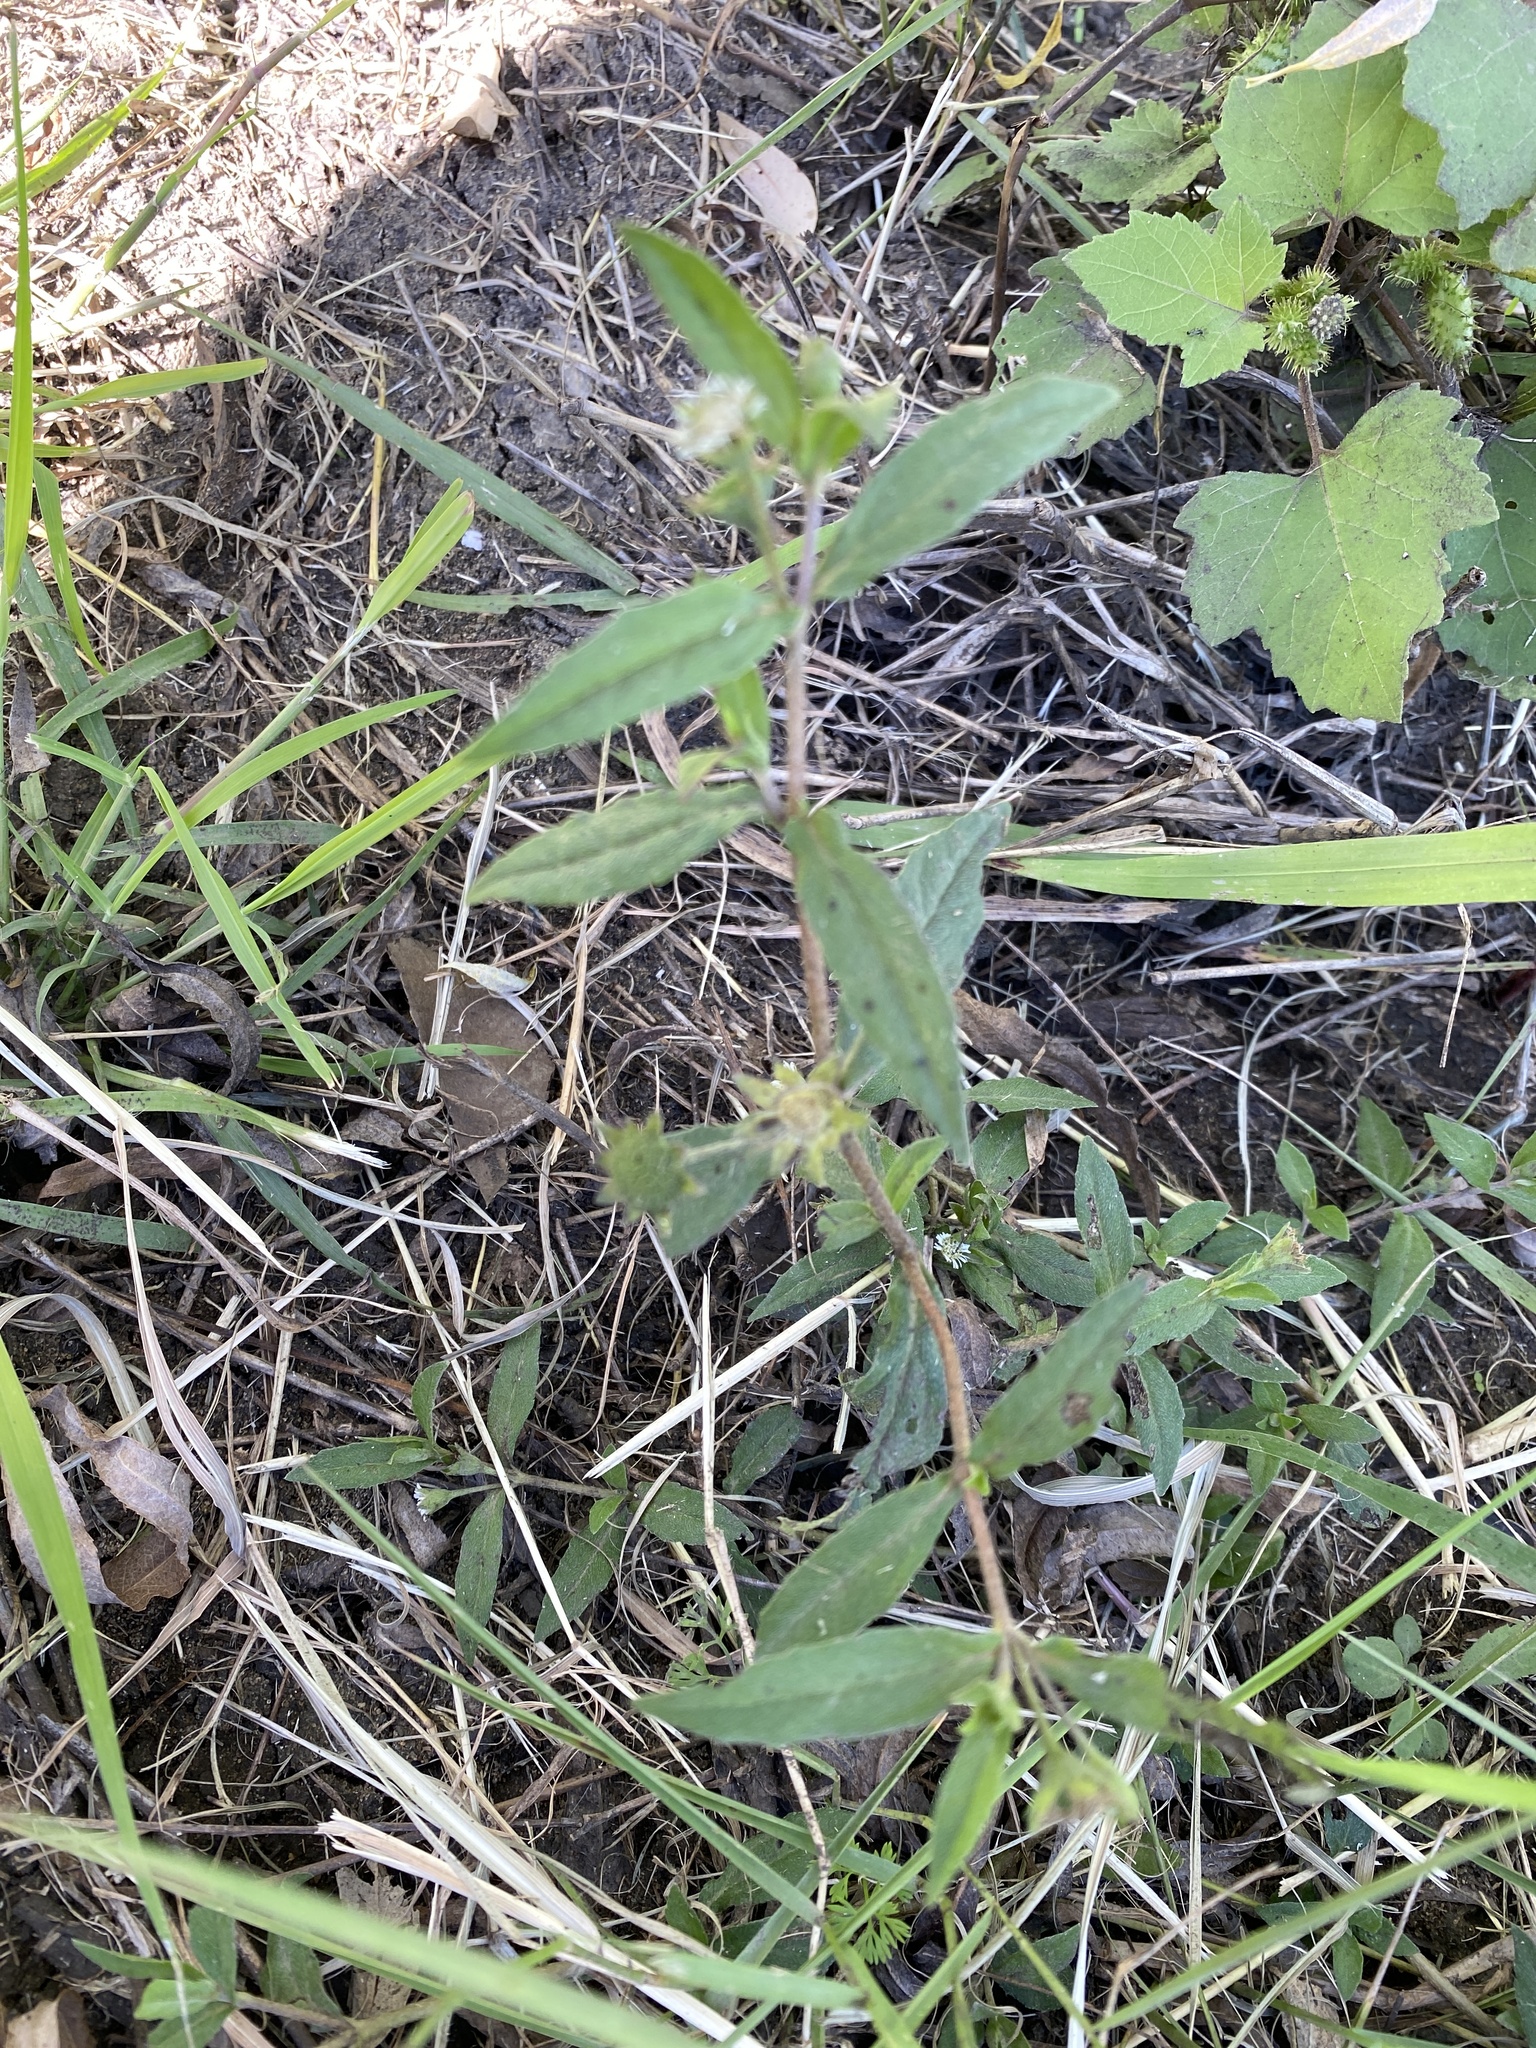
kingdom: Plantae
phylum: Tracheophyta
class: Magnoliopsida
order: Asterales
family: Asteraceae
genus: Eclipta
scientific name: Eclipta prostrata
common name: False daisy
